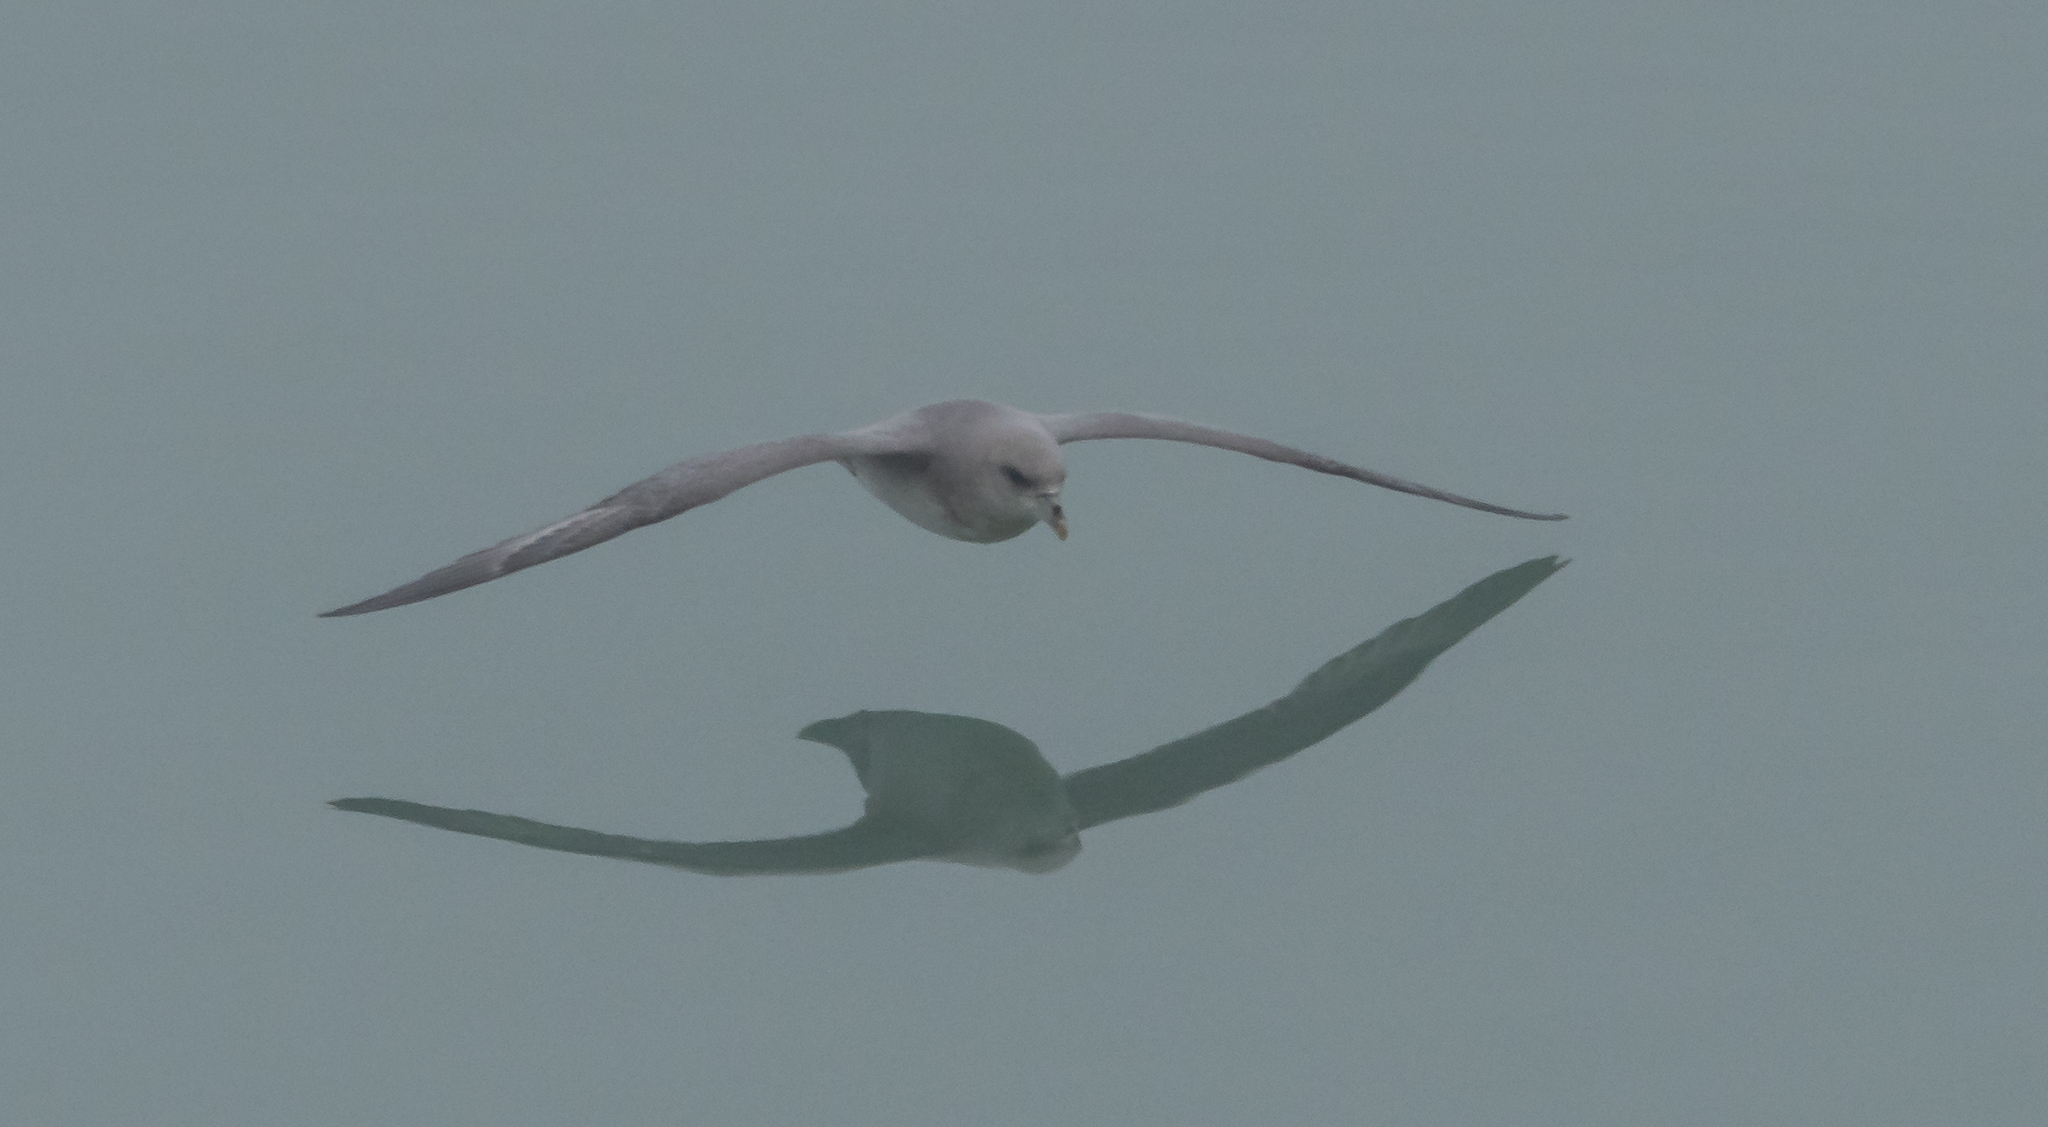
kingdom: Animalia
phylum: Chordata
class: Aves
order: Procellariiformes
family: Procellariidae
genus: Fulmarus
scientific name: Fulmarus glacialis
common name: Northern fulmar
